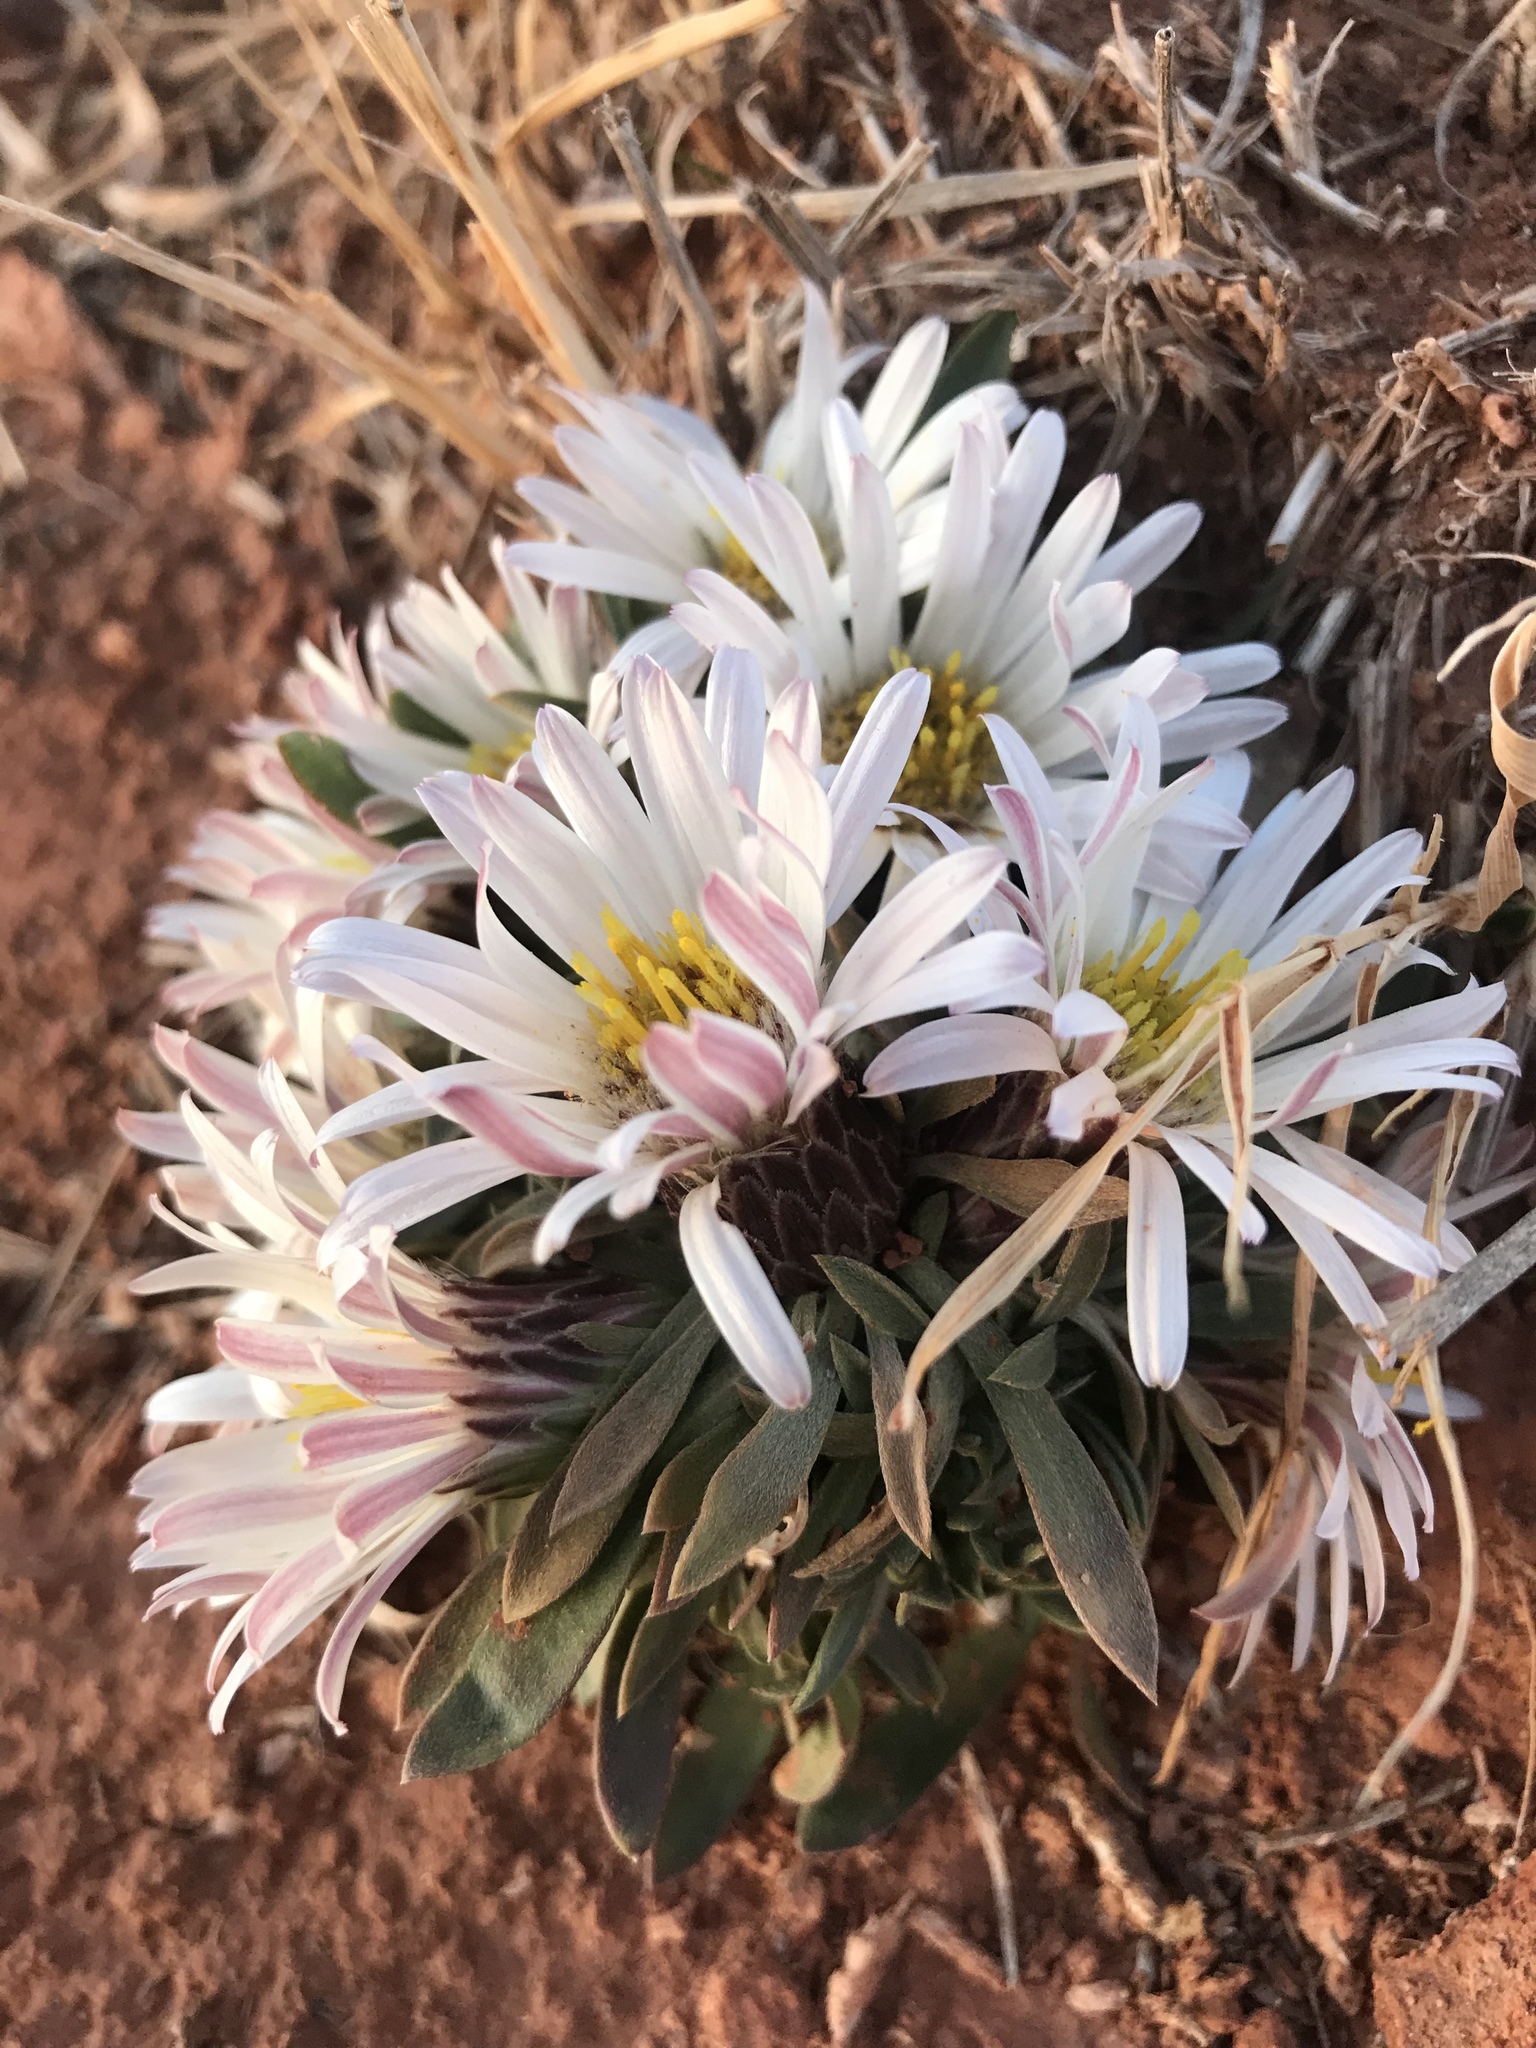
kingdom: Plantae
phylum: Tracheophyta
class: Magnoliopsida
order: Asterales
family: Asteraceae
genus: Townsendia
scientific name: Townsendia exscapa
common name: Dwarf townsendia
